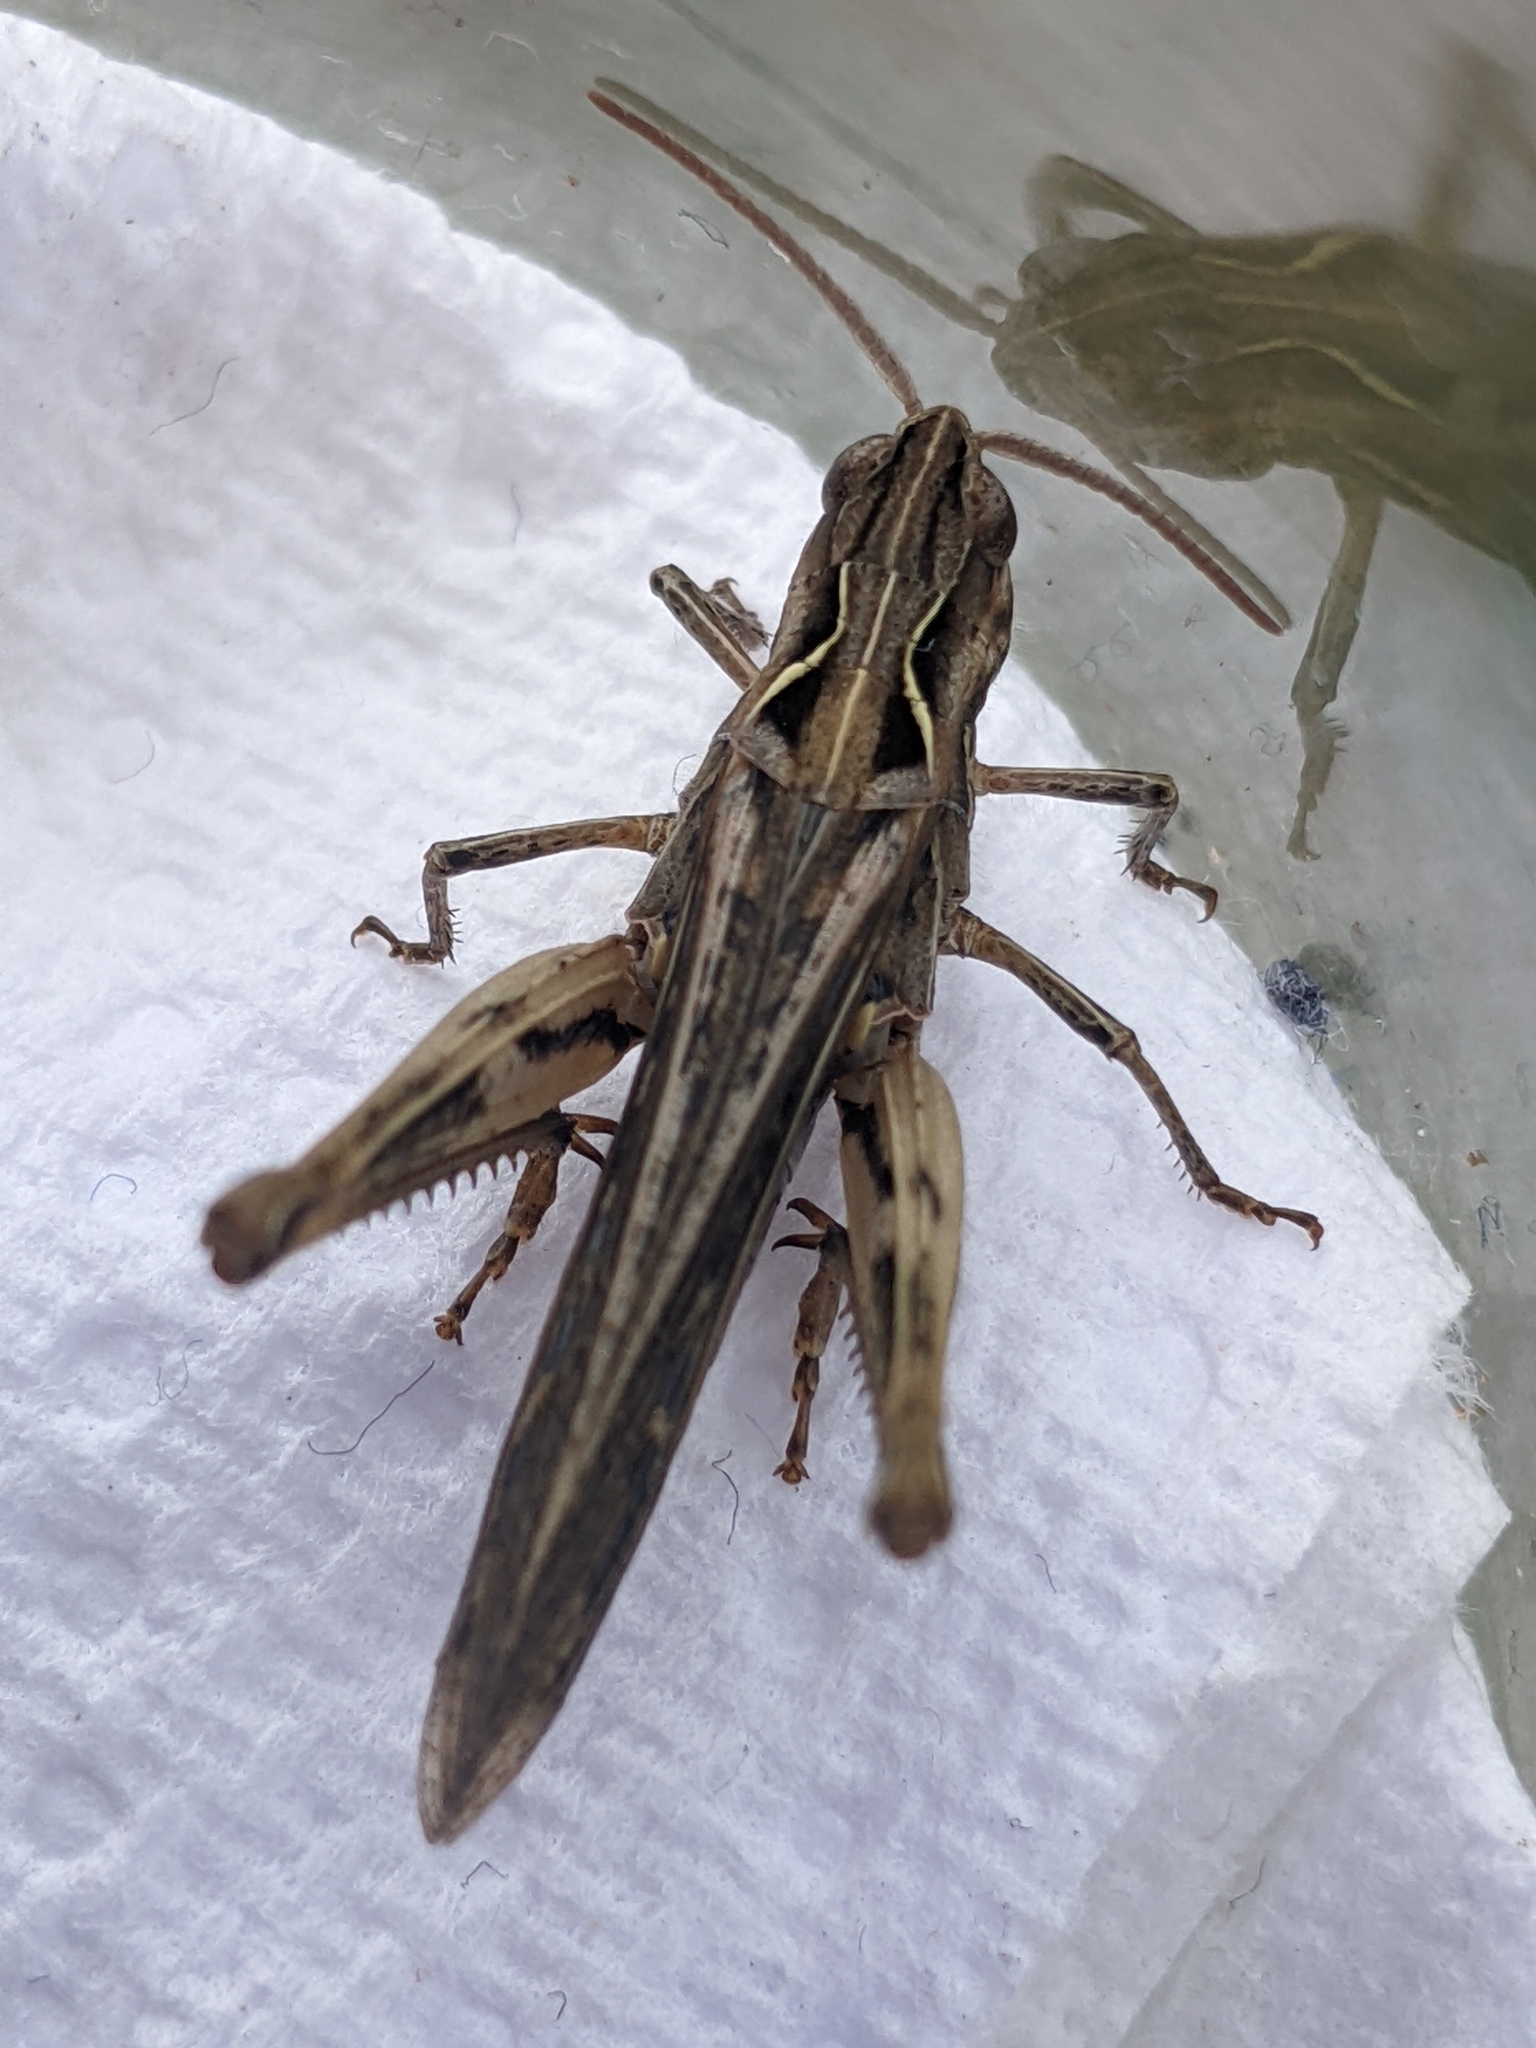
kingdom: Animalia
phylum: Arthropoda
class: Insecta
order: Orthoptera
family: Acrididae
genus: Chorthippus
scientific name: Chorthippus brunneus
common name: Field grasshopper
